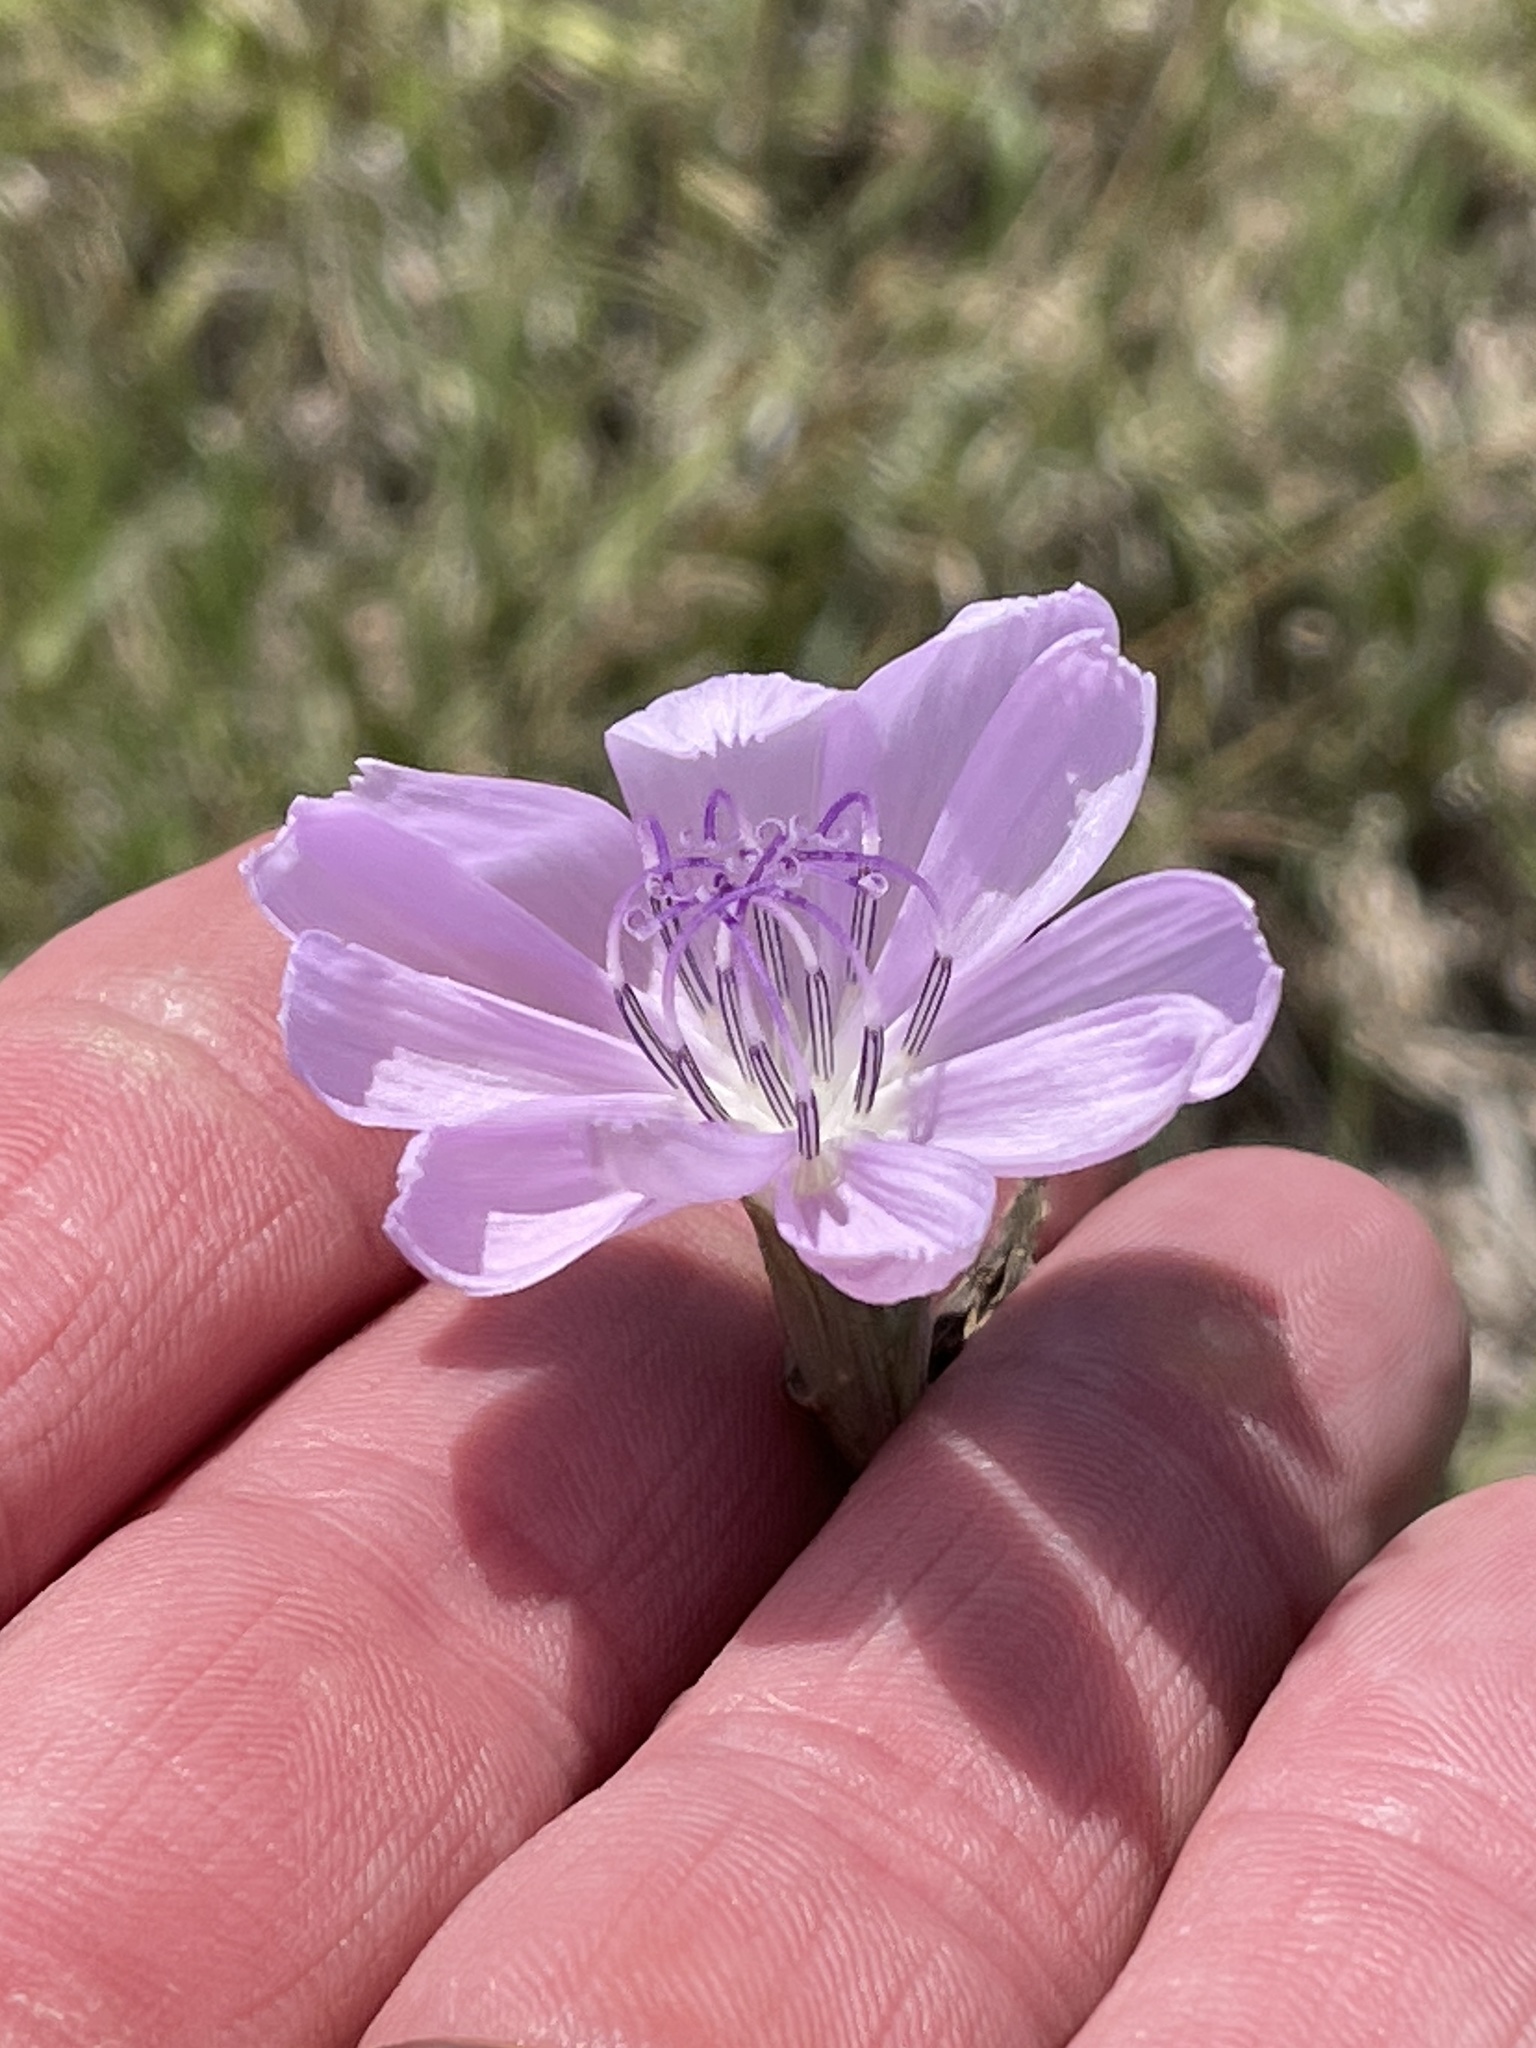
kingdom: Plantae
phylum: Tracheophyta
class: Magnoliopsida
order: Asterales
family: Asteraceae
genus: Lygodesmia
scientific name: Lygodesmia texana
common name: Texas skeleton-plant
